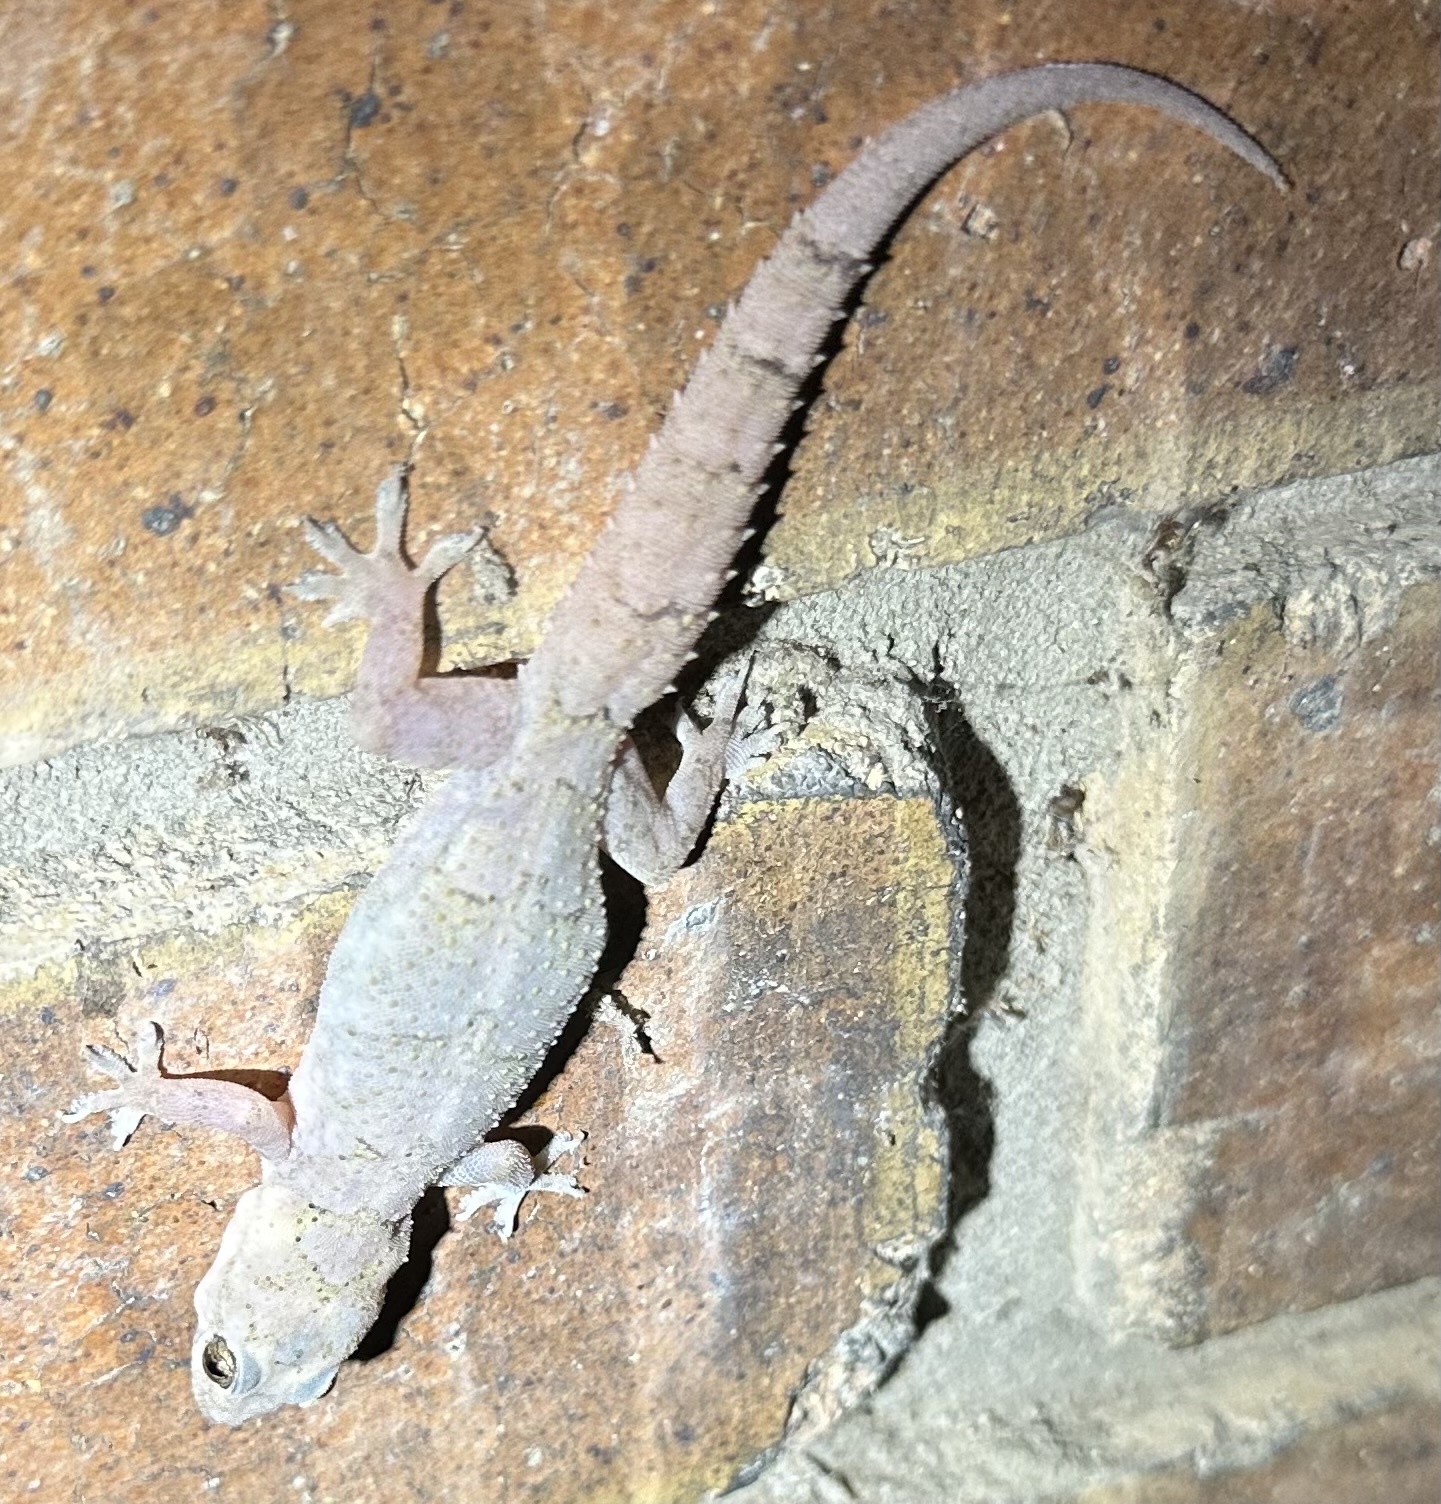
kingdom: Animalia
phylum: Chordata
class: Squamata
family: Gekkonidae
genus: Hemidactylus
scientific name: Hemidactylus mabouia
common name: House gecko
